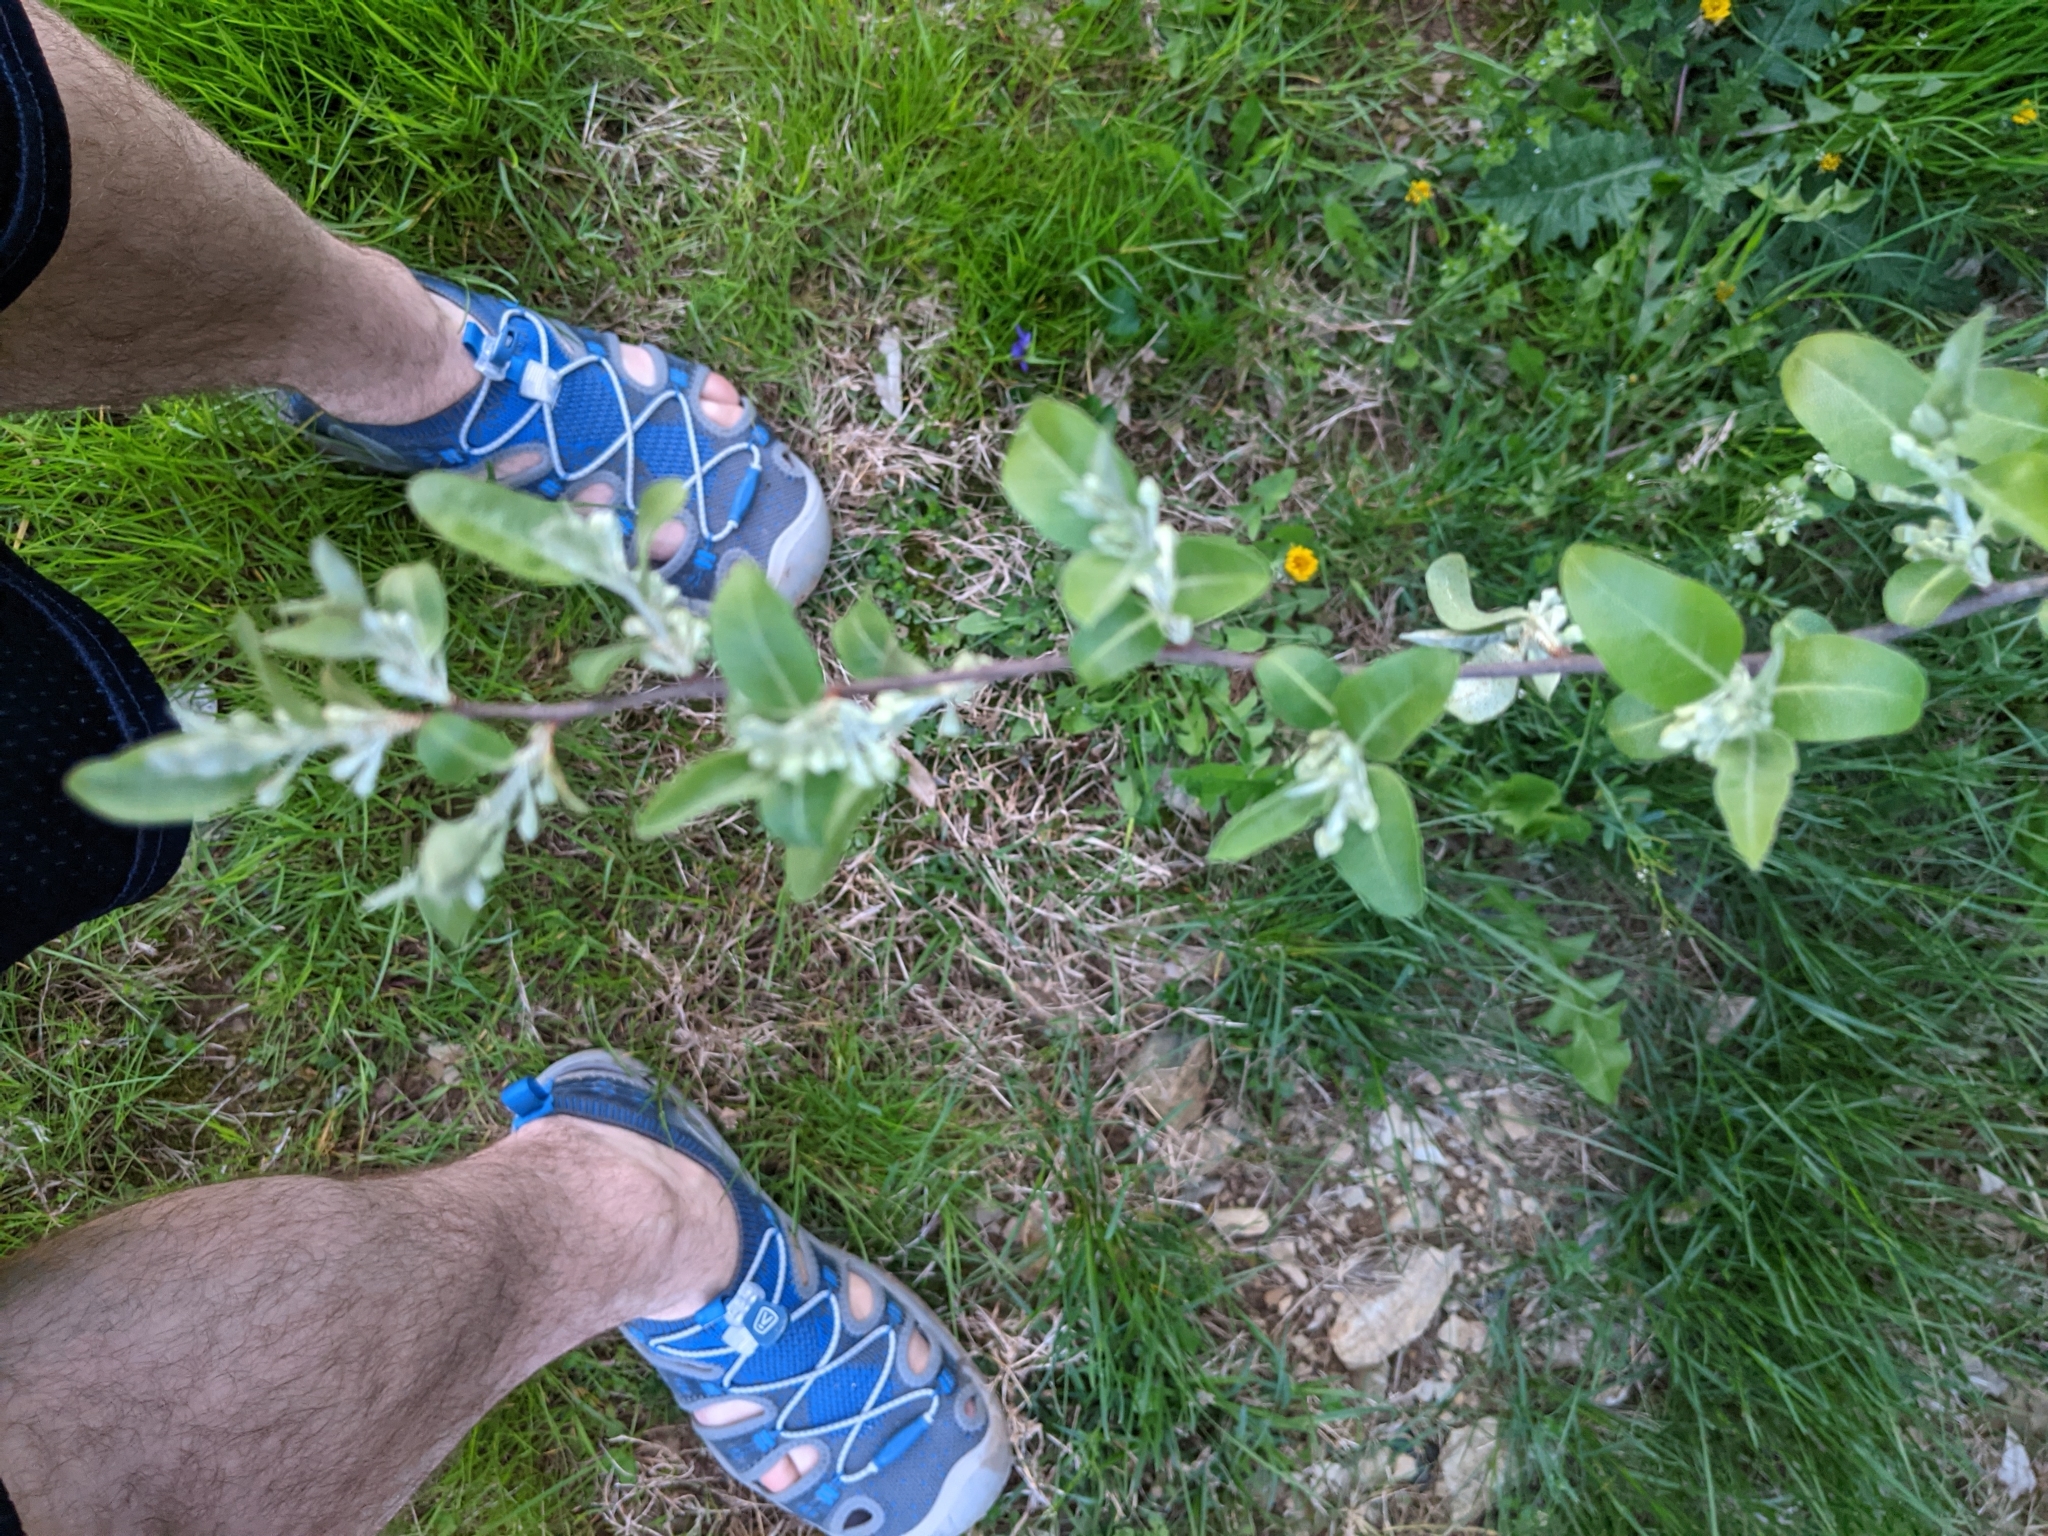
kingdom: Plantae
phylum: Tracheophyta
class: Magnoliopsida
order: Rosales
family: Elaeagnaceae
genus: Elaeagnus
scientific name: Elaeagnus umbellata
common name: Autumn olive
